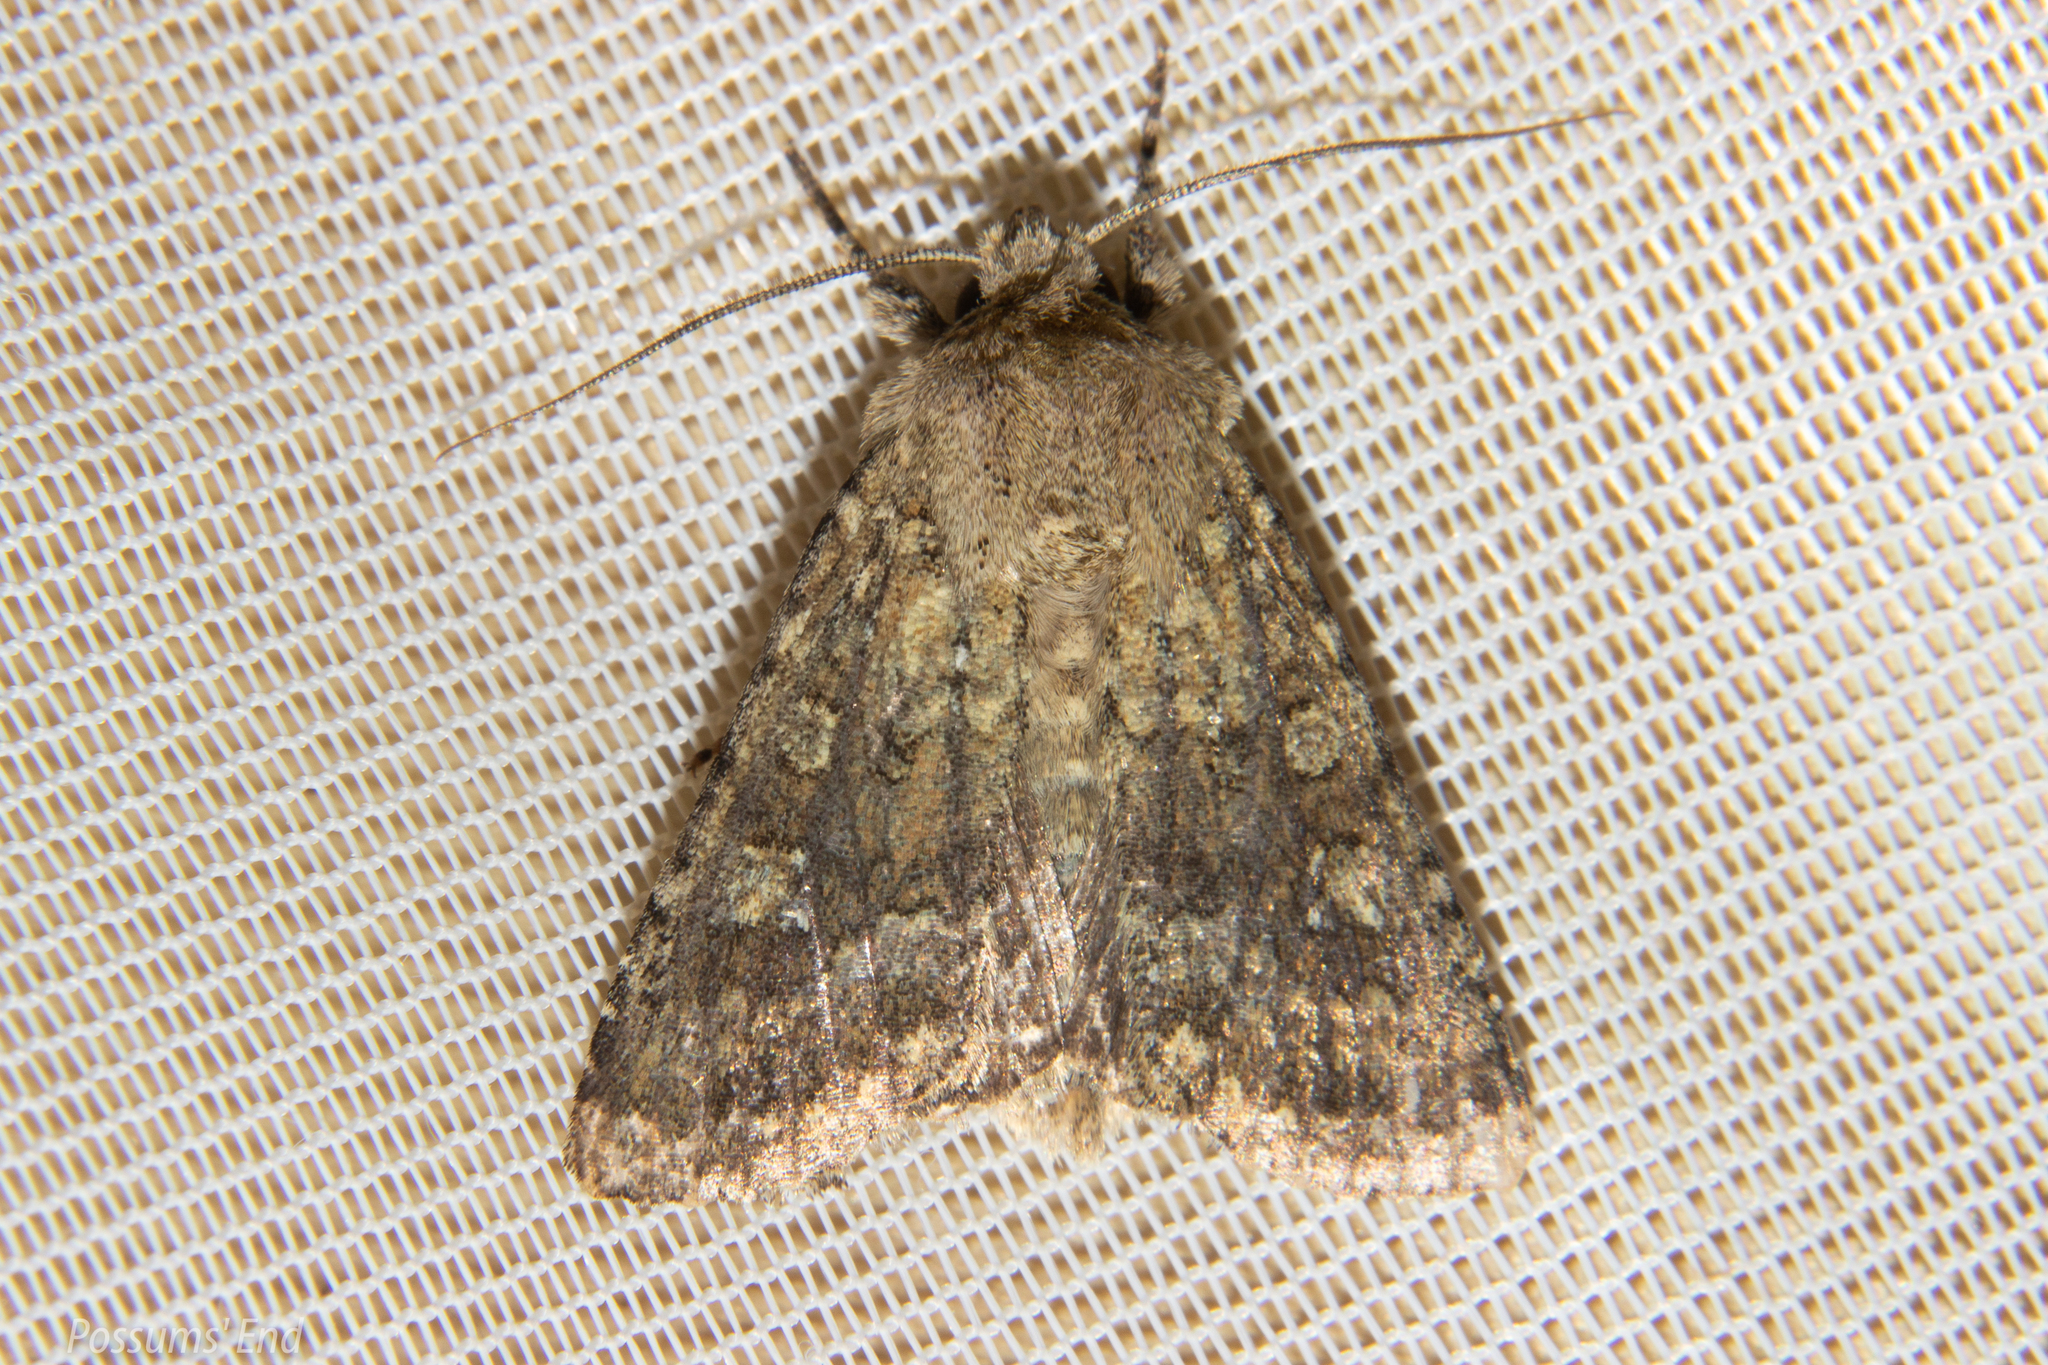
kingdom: Animalia
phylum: Arthropoda
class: Insecta
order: Lepidoptera
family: Noctuidae
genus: Ichneutica
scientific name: Ichneutica barbara
